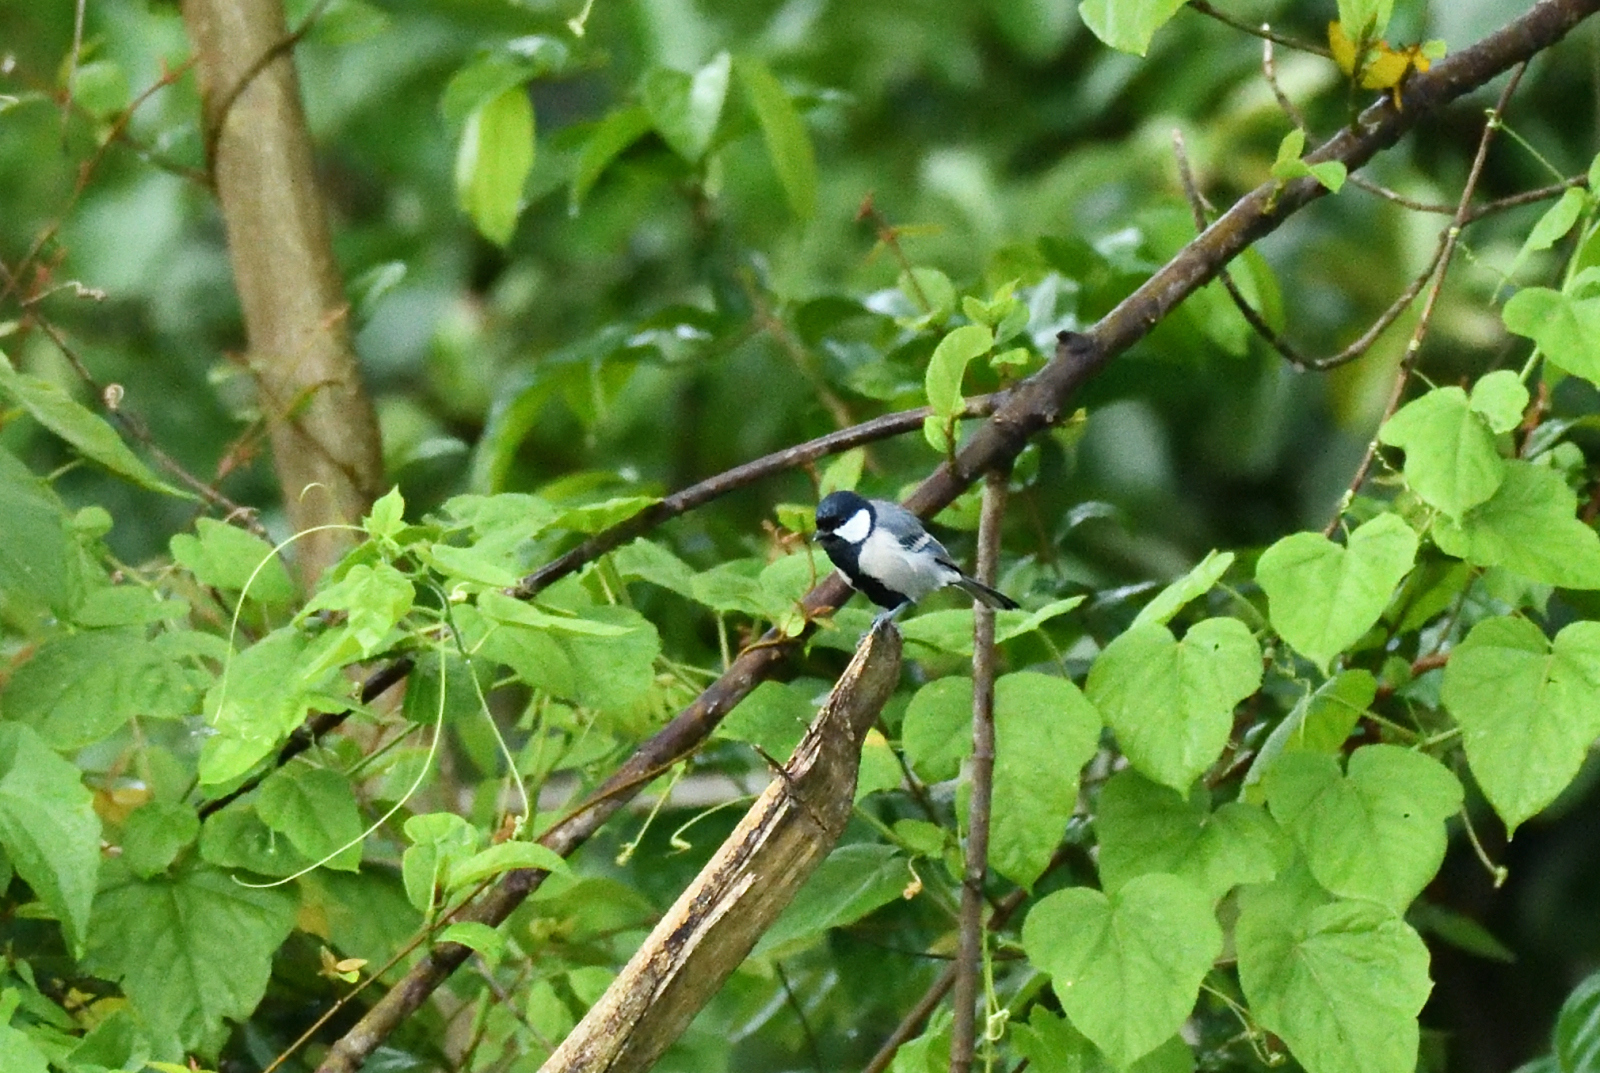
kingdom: Animalia
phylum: Chordata
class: Aves
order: Passeriformes
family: Paridae
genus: Parus
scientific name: Parus cinereus
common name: Cinereous tit
